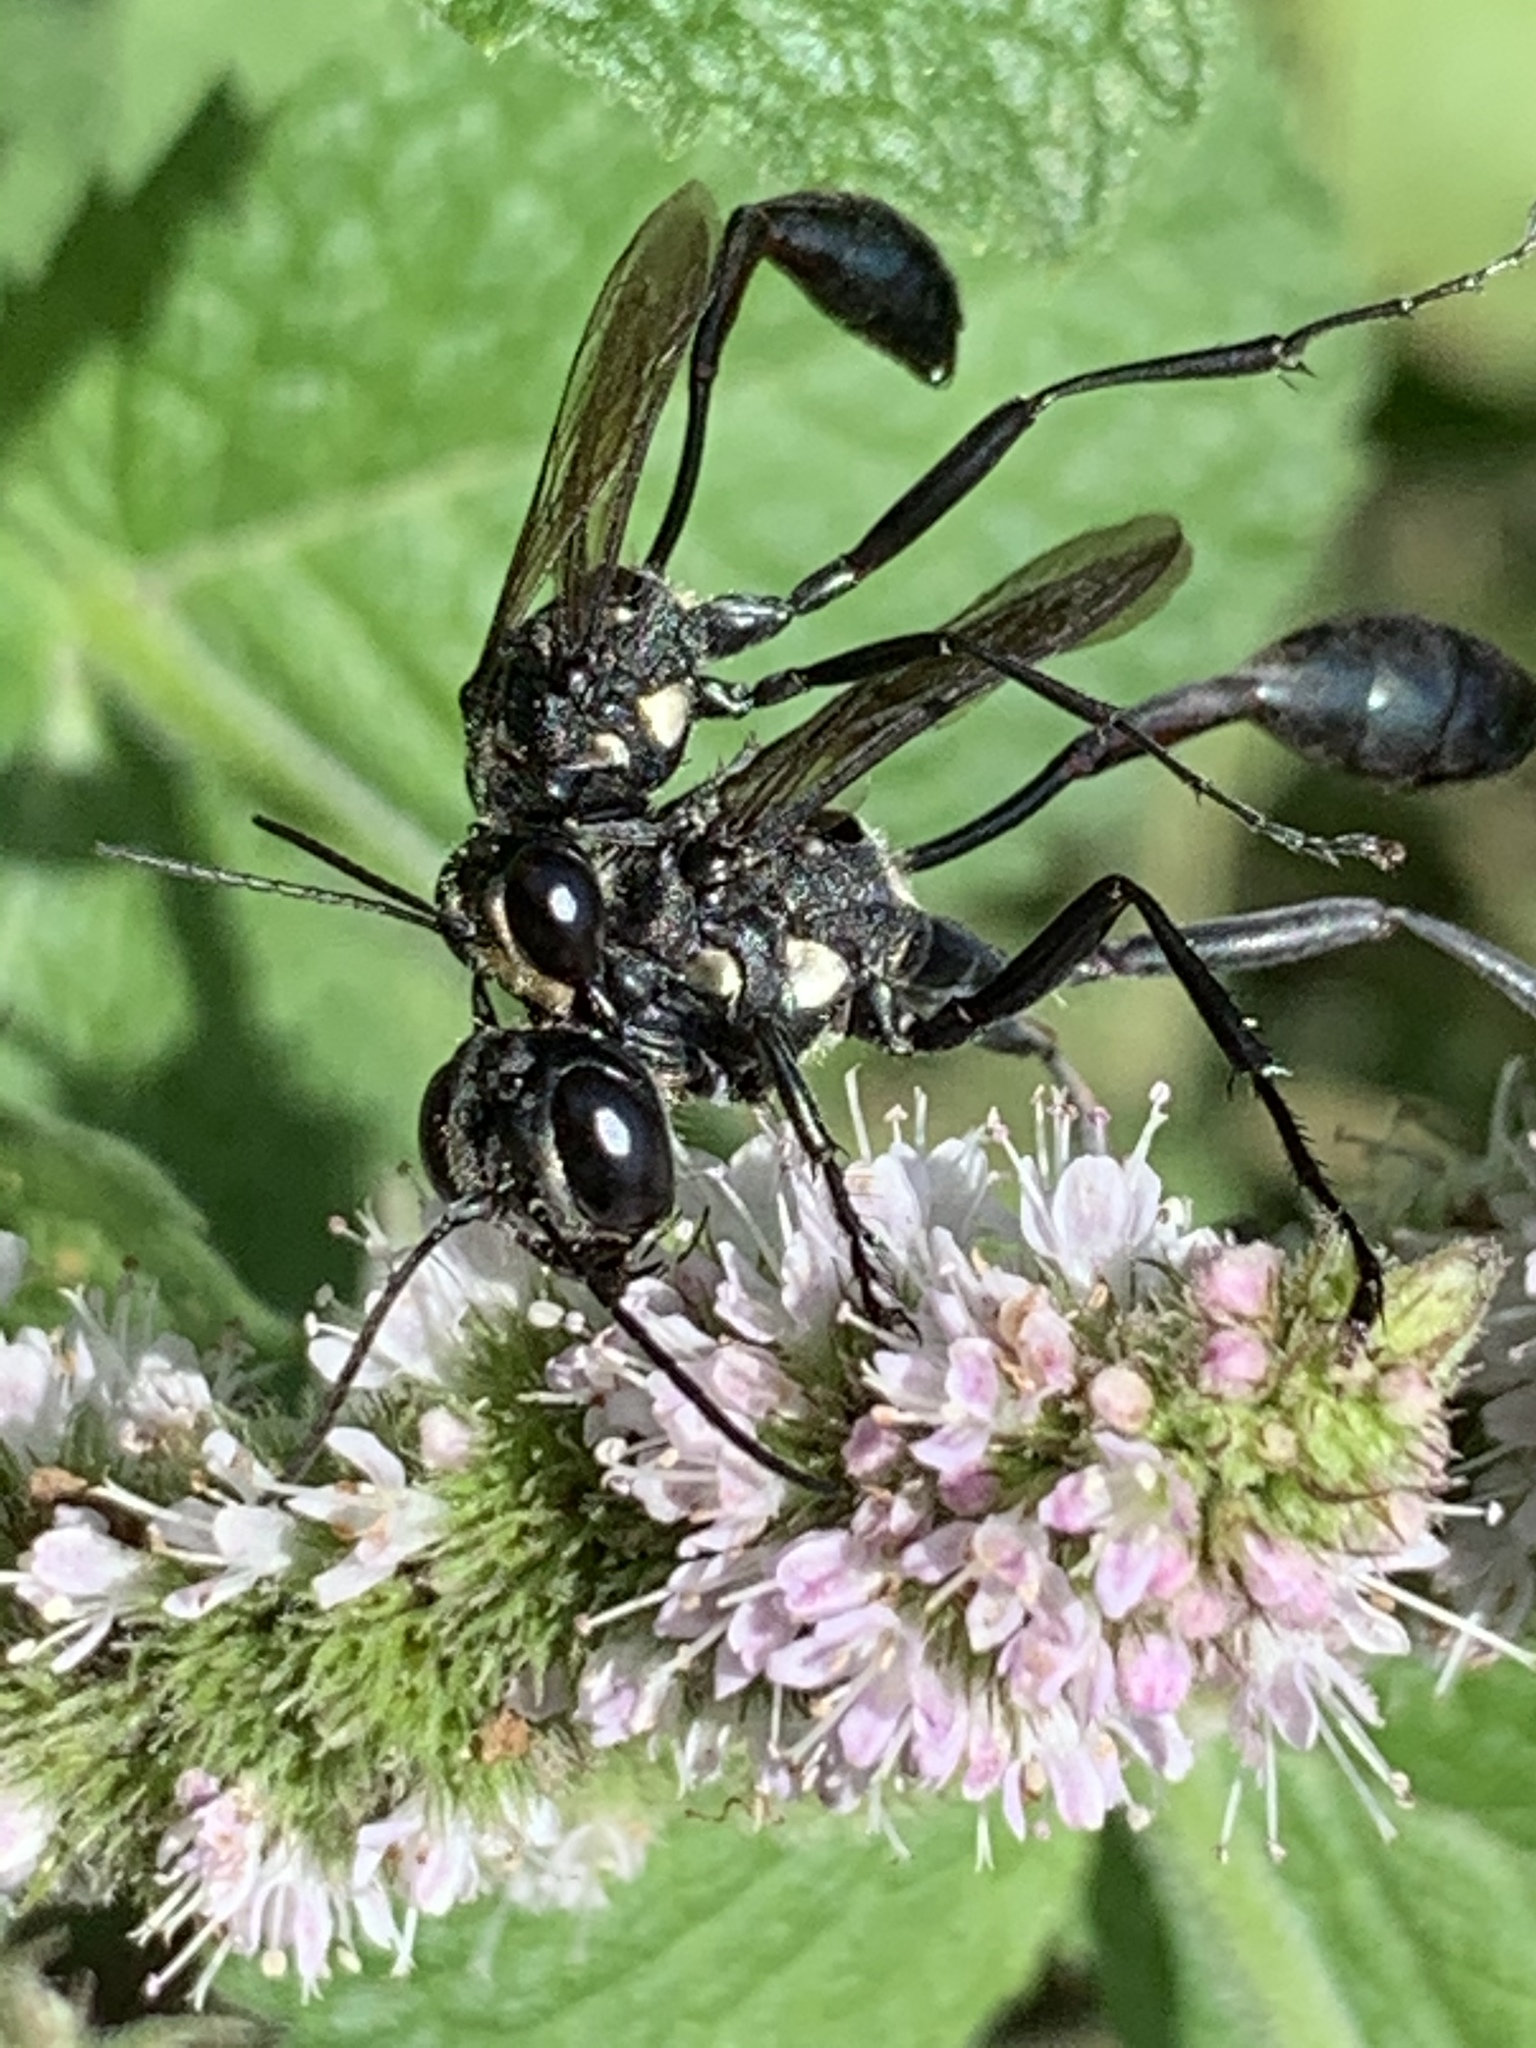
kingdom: Animalia
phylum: Arthropoda
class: Insecta
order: Hymenoptera
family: Sphecidae
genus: Eremnophila
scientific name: Eremnophila aureonotata
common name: Gold-marked thread-waisted wasp
